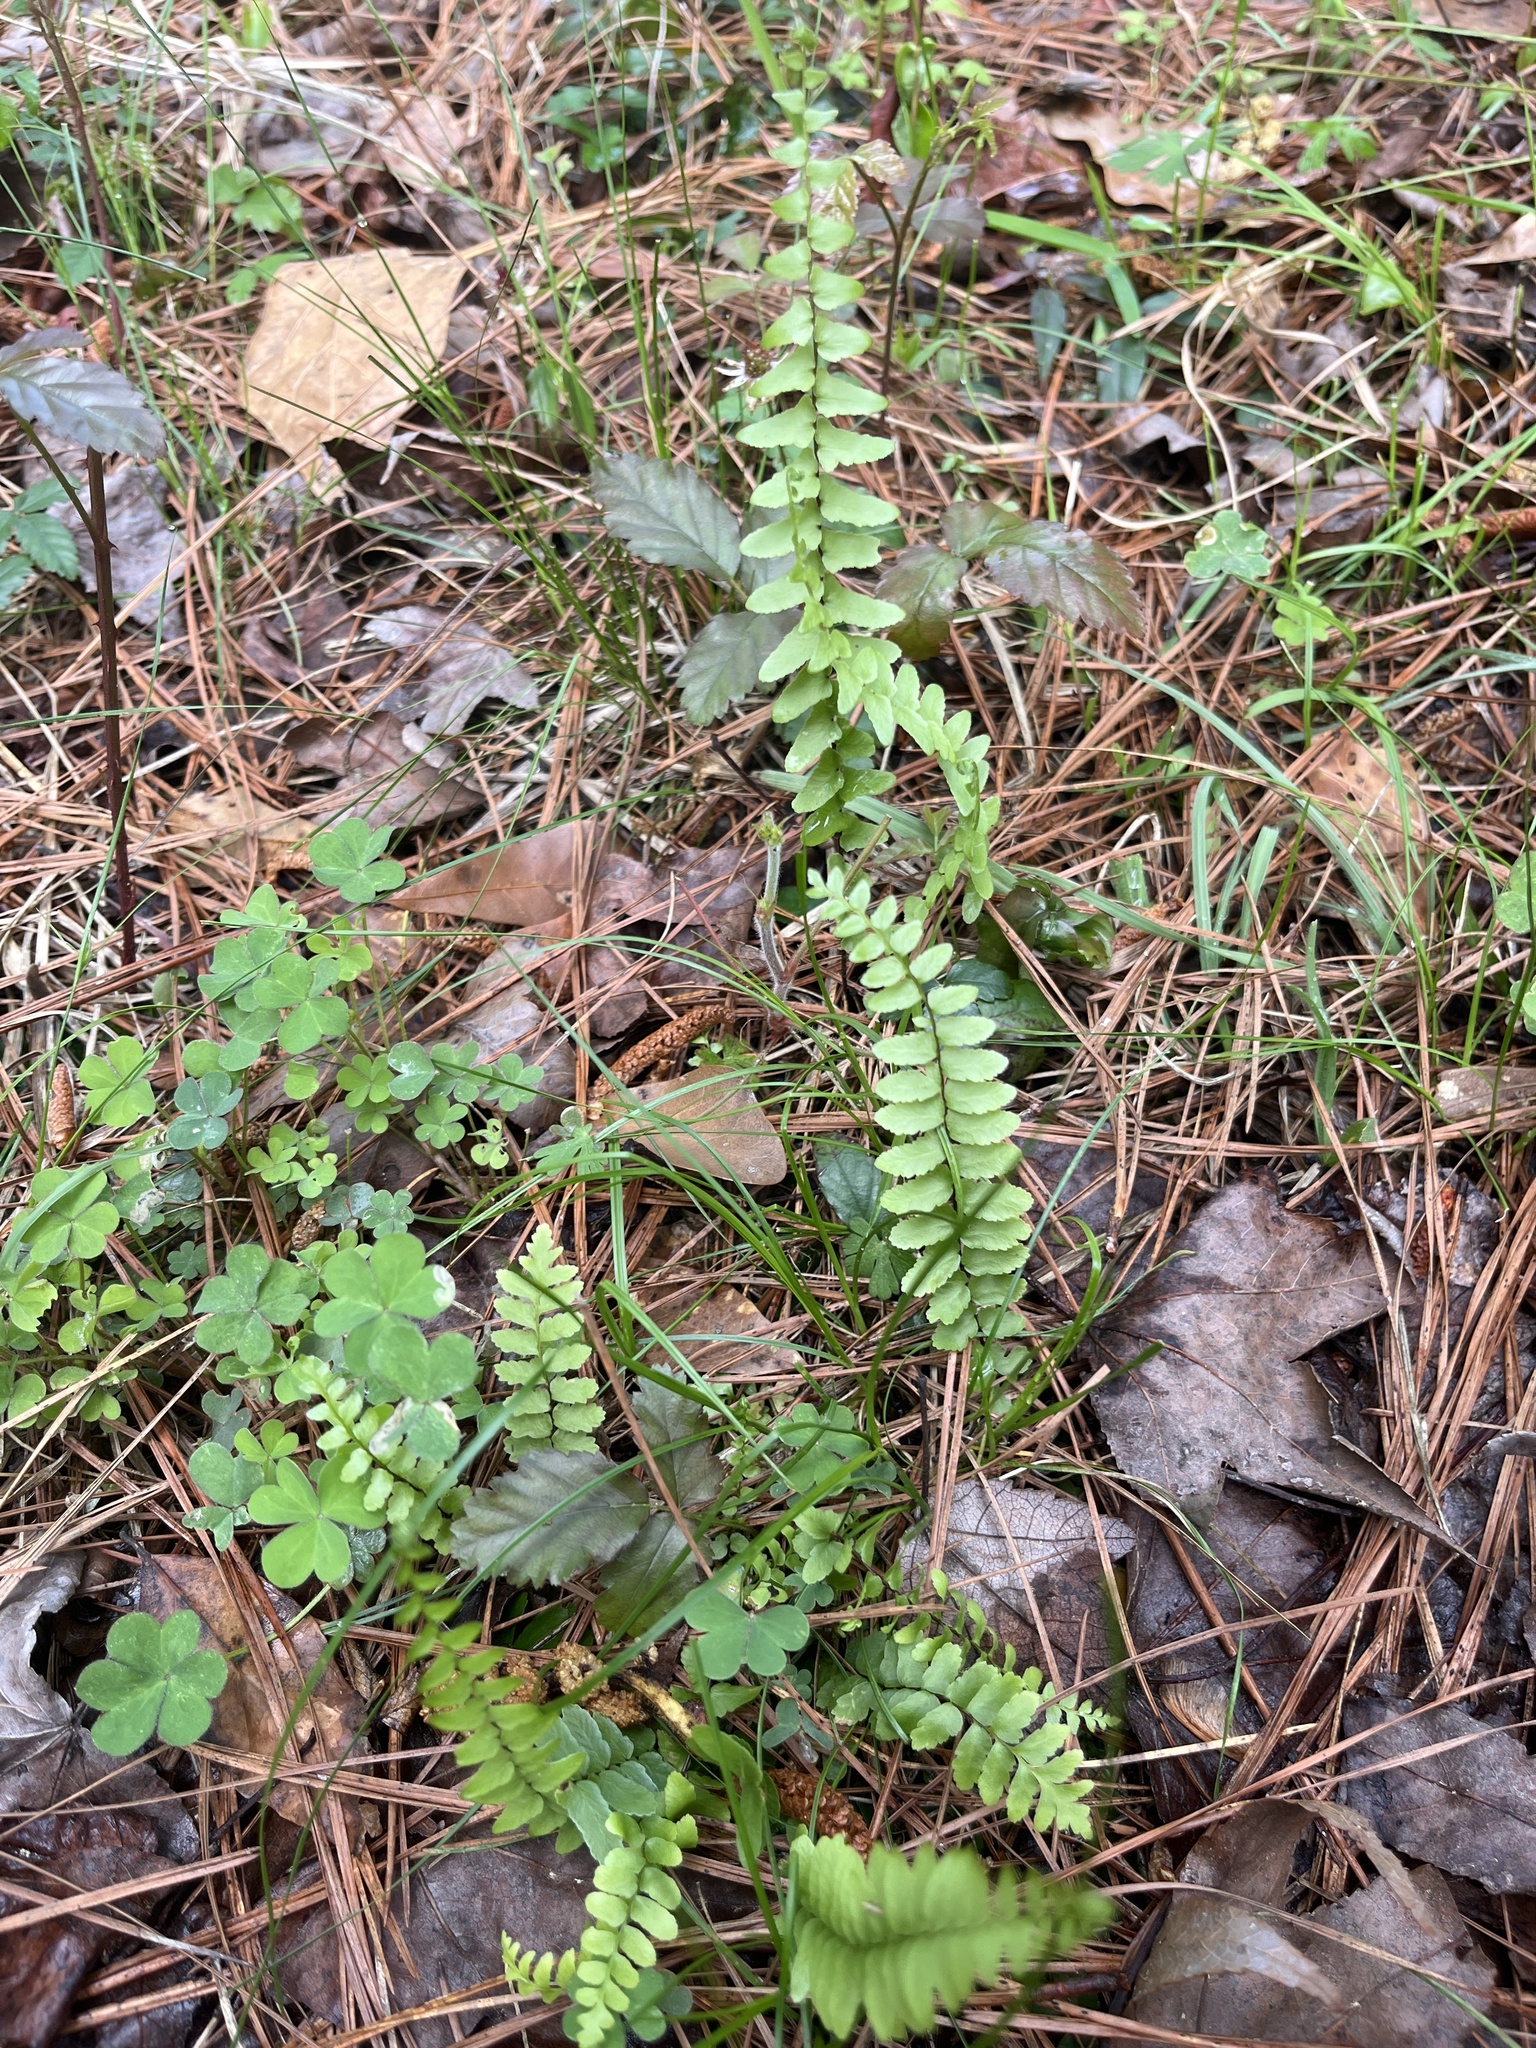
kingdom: Plantae
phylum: Tracheophyta
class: Polypodiopsida
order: Polypodiales
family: Aspleniaceae
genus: Asplenium
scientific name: Asplenium platyneuron
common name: Ebony spleenwort
